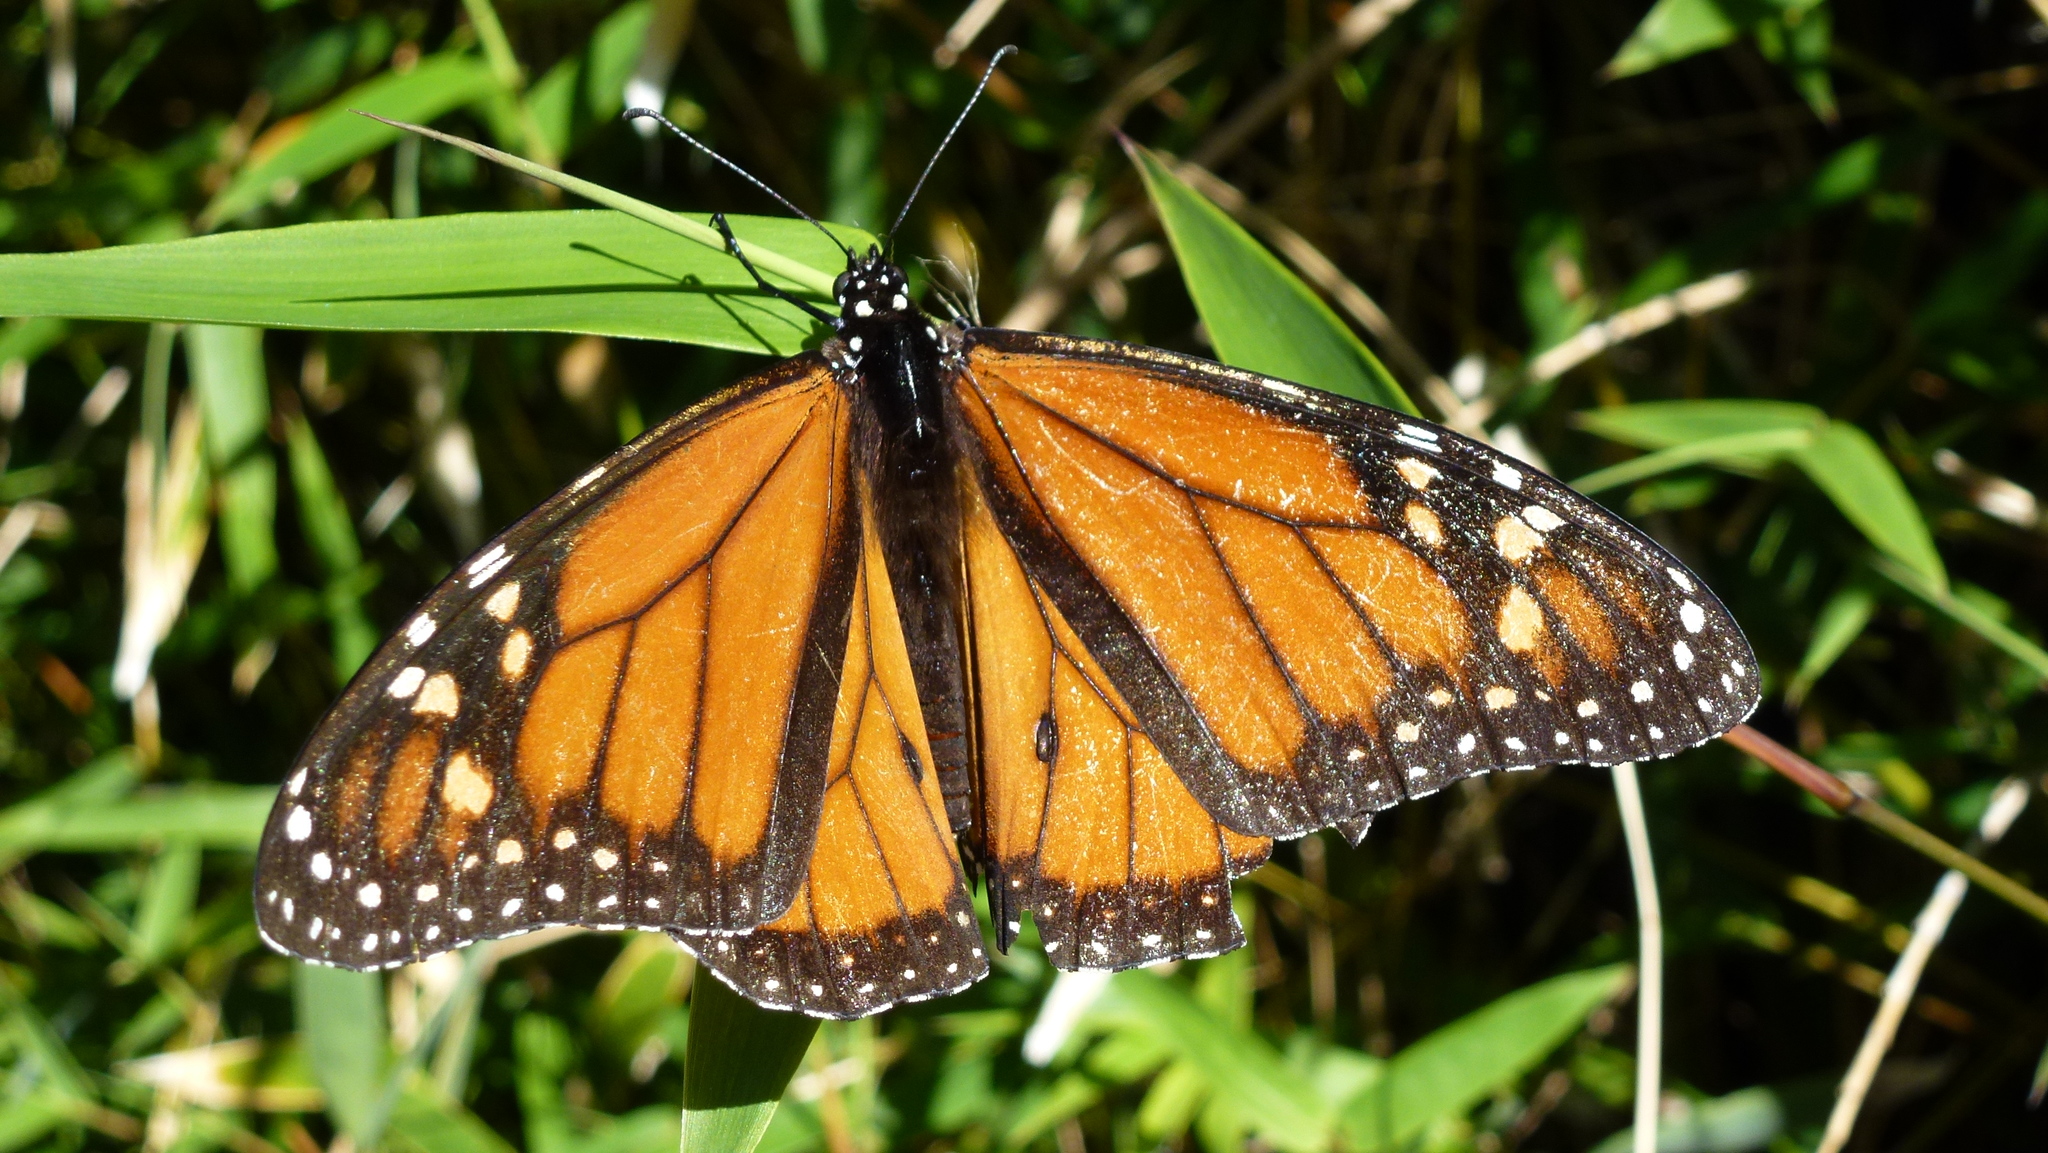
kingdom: Animalia
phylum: Arthropoda
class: Insecta
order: Lepidoptera
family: Nymphalidae
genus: Danaus
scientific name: Danaus plexippus
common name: Monarch
